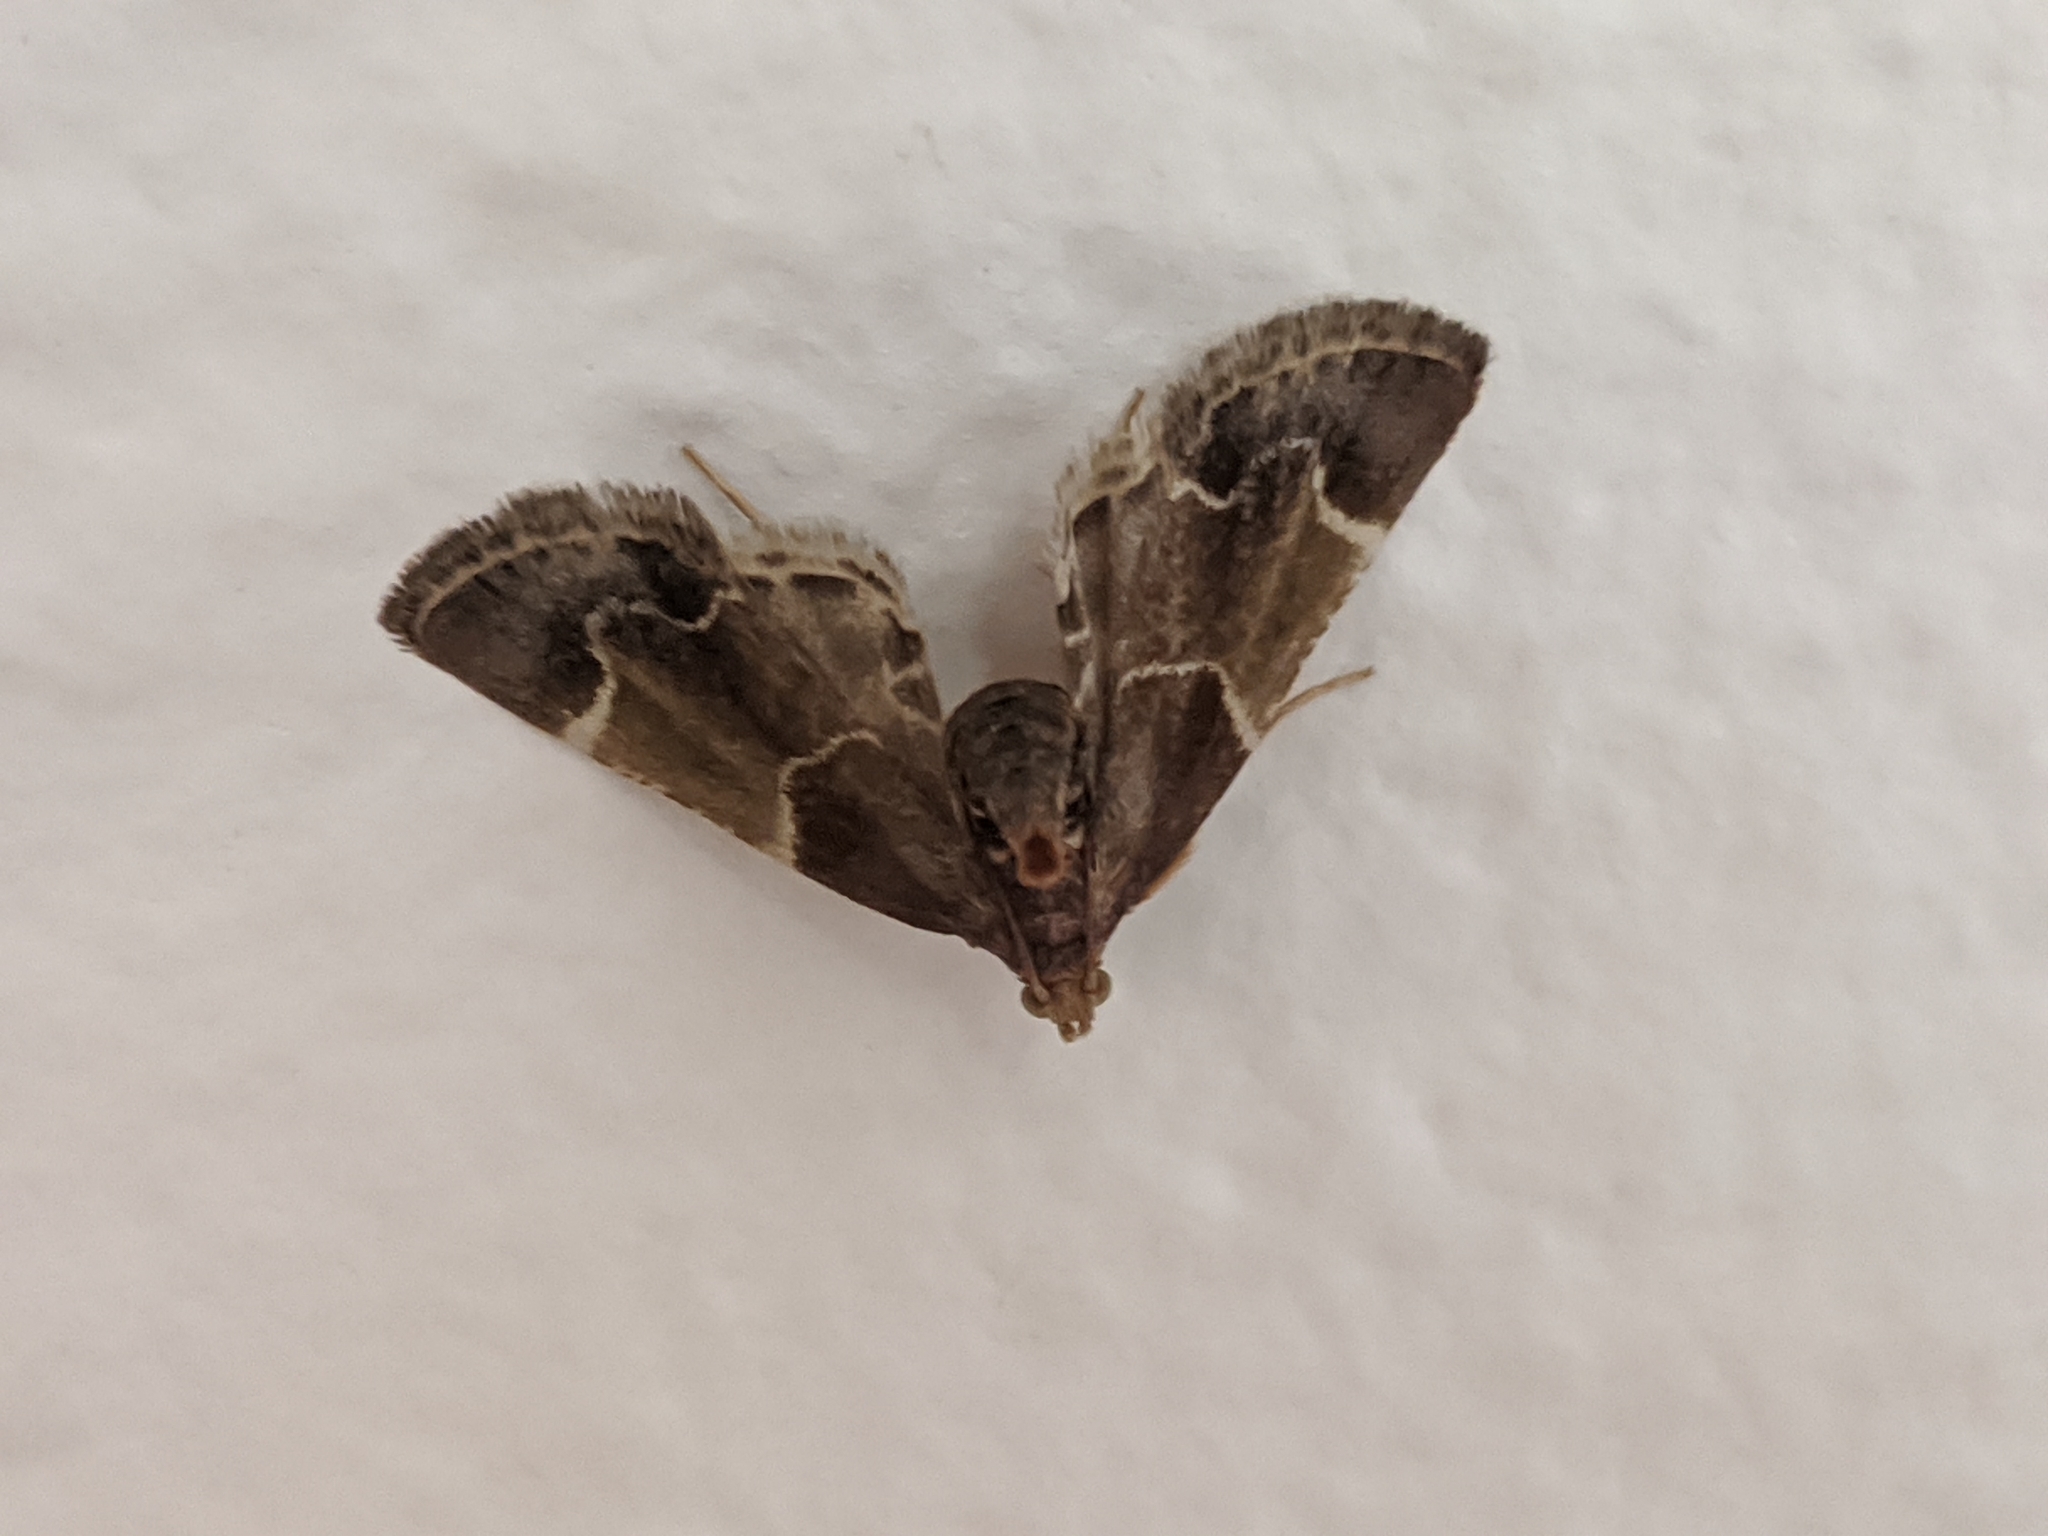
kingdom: Animalia
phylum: Arthropoda
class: Insecta
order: Lepidoptera
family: Pyralidae
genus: Pyralis
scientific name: Pyralis farinalis
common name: Meal moth
